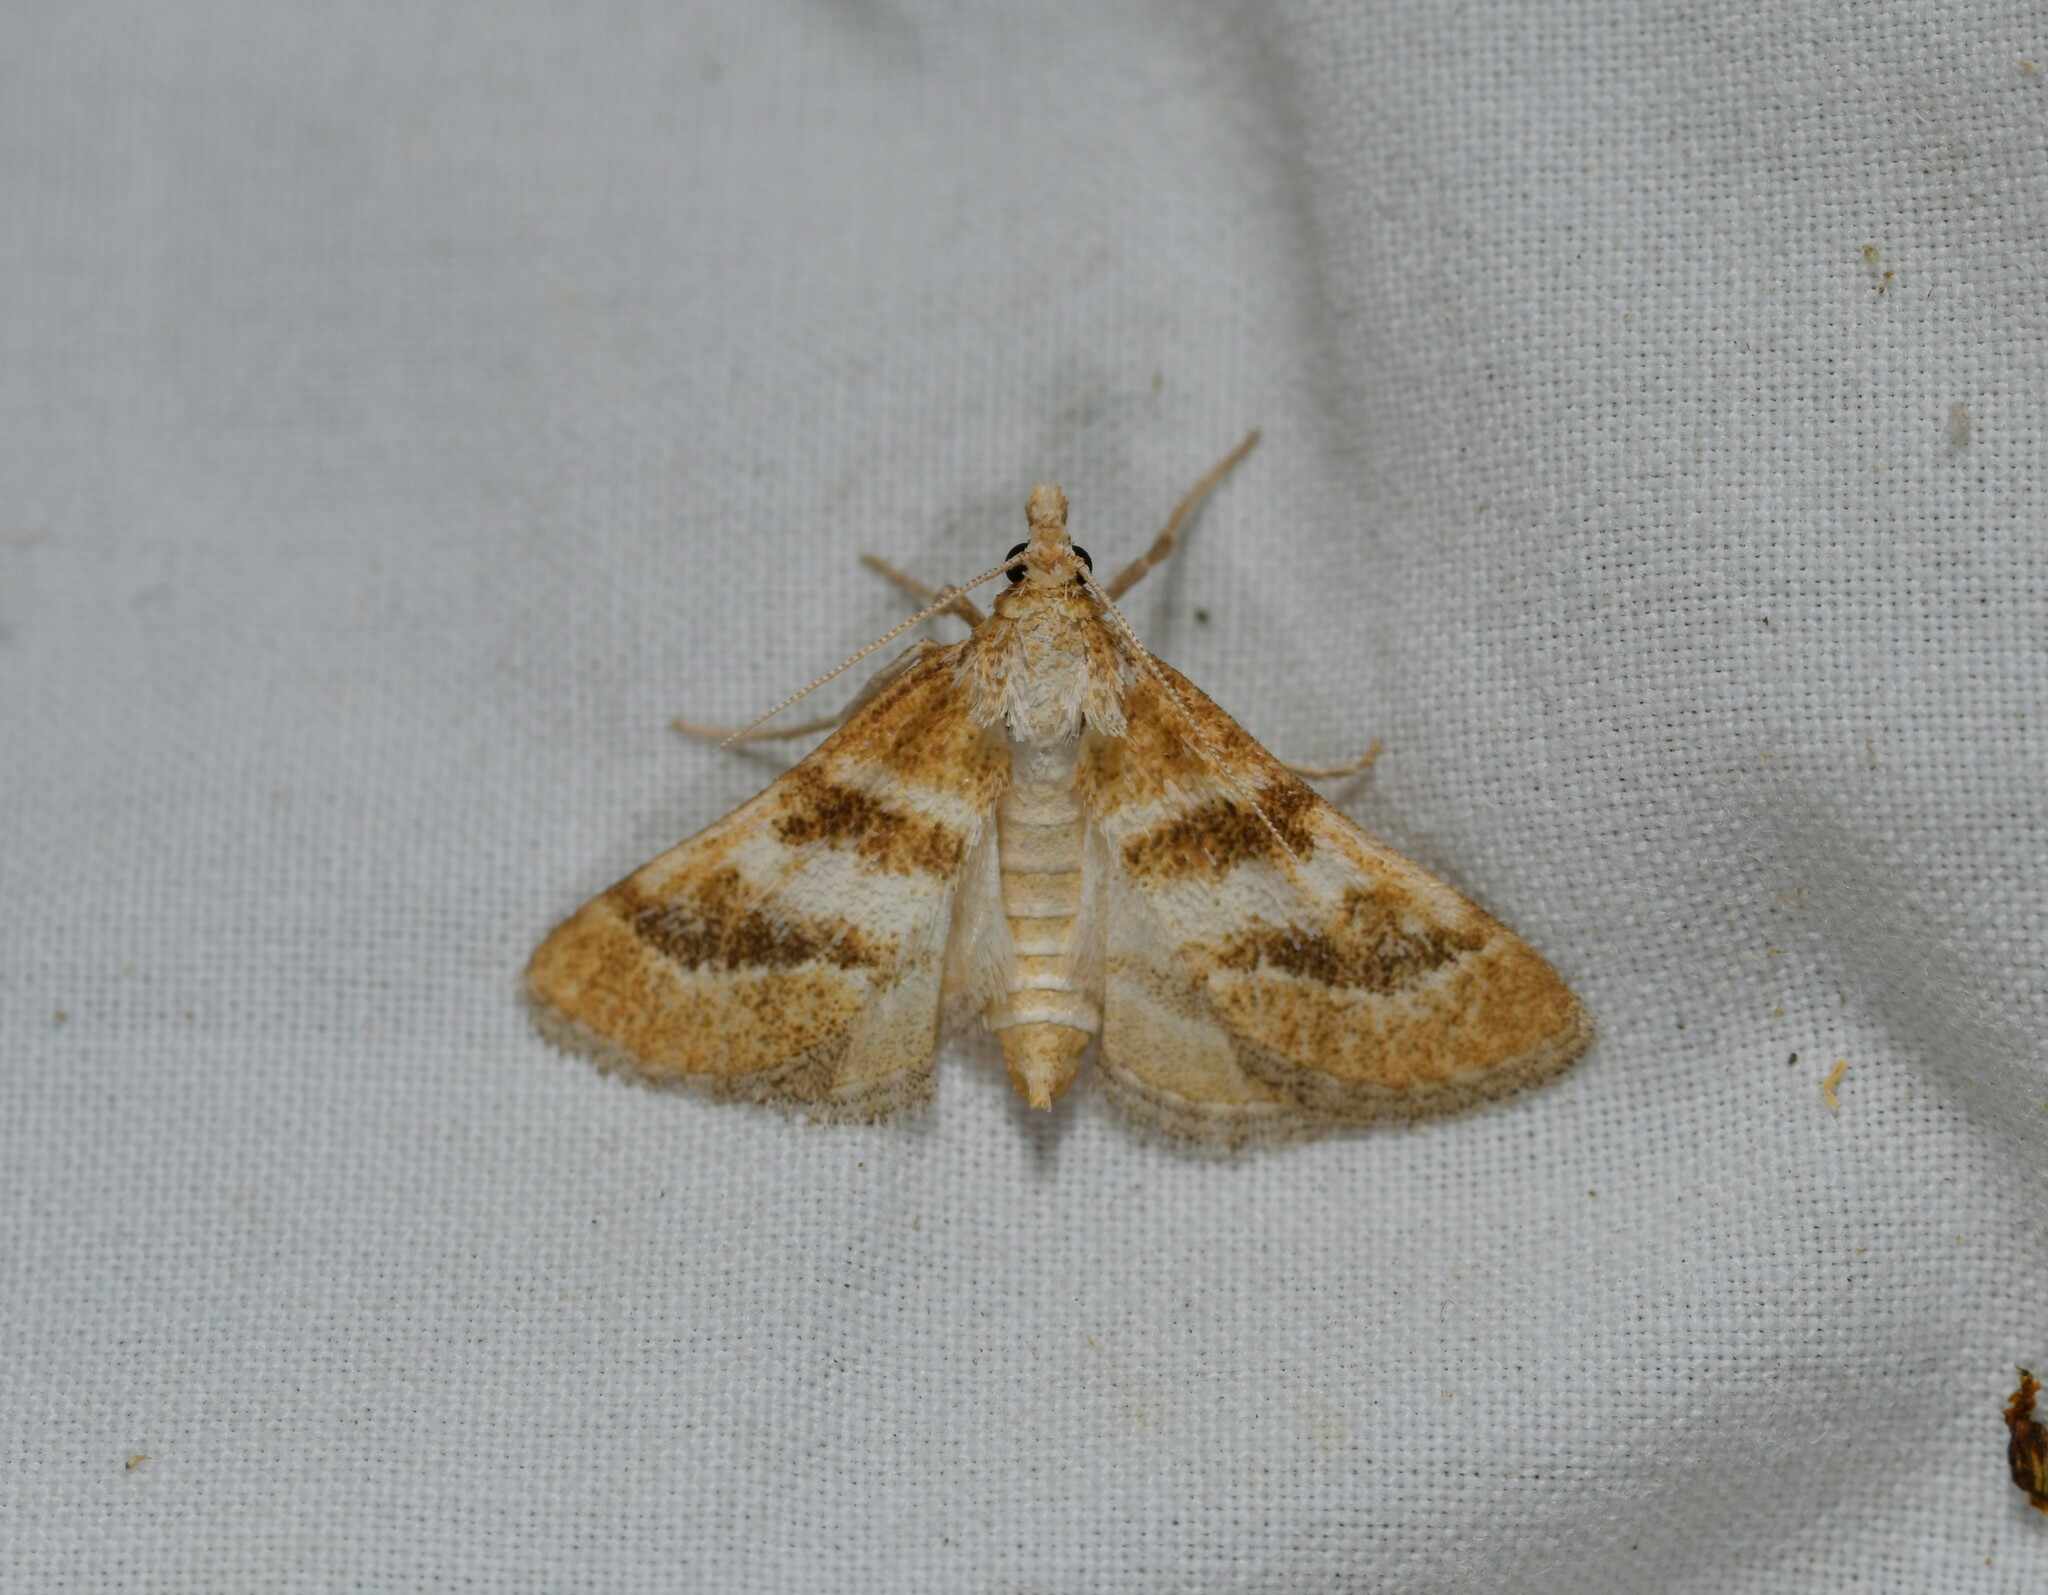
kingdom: Animalia
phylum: Arthropoda
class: Insecta
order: Lepidoptera
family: Crambidae
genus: Metasia
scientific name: Metasia suppandalis
